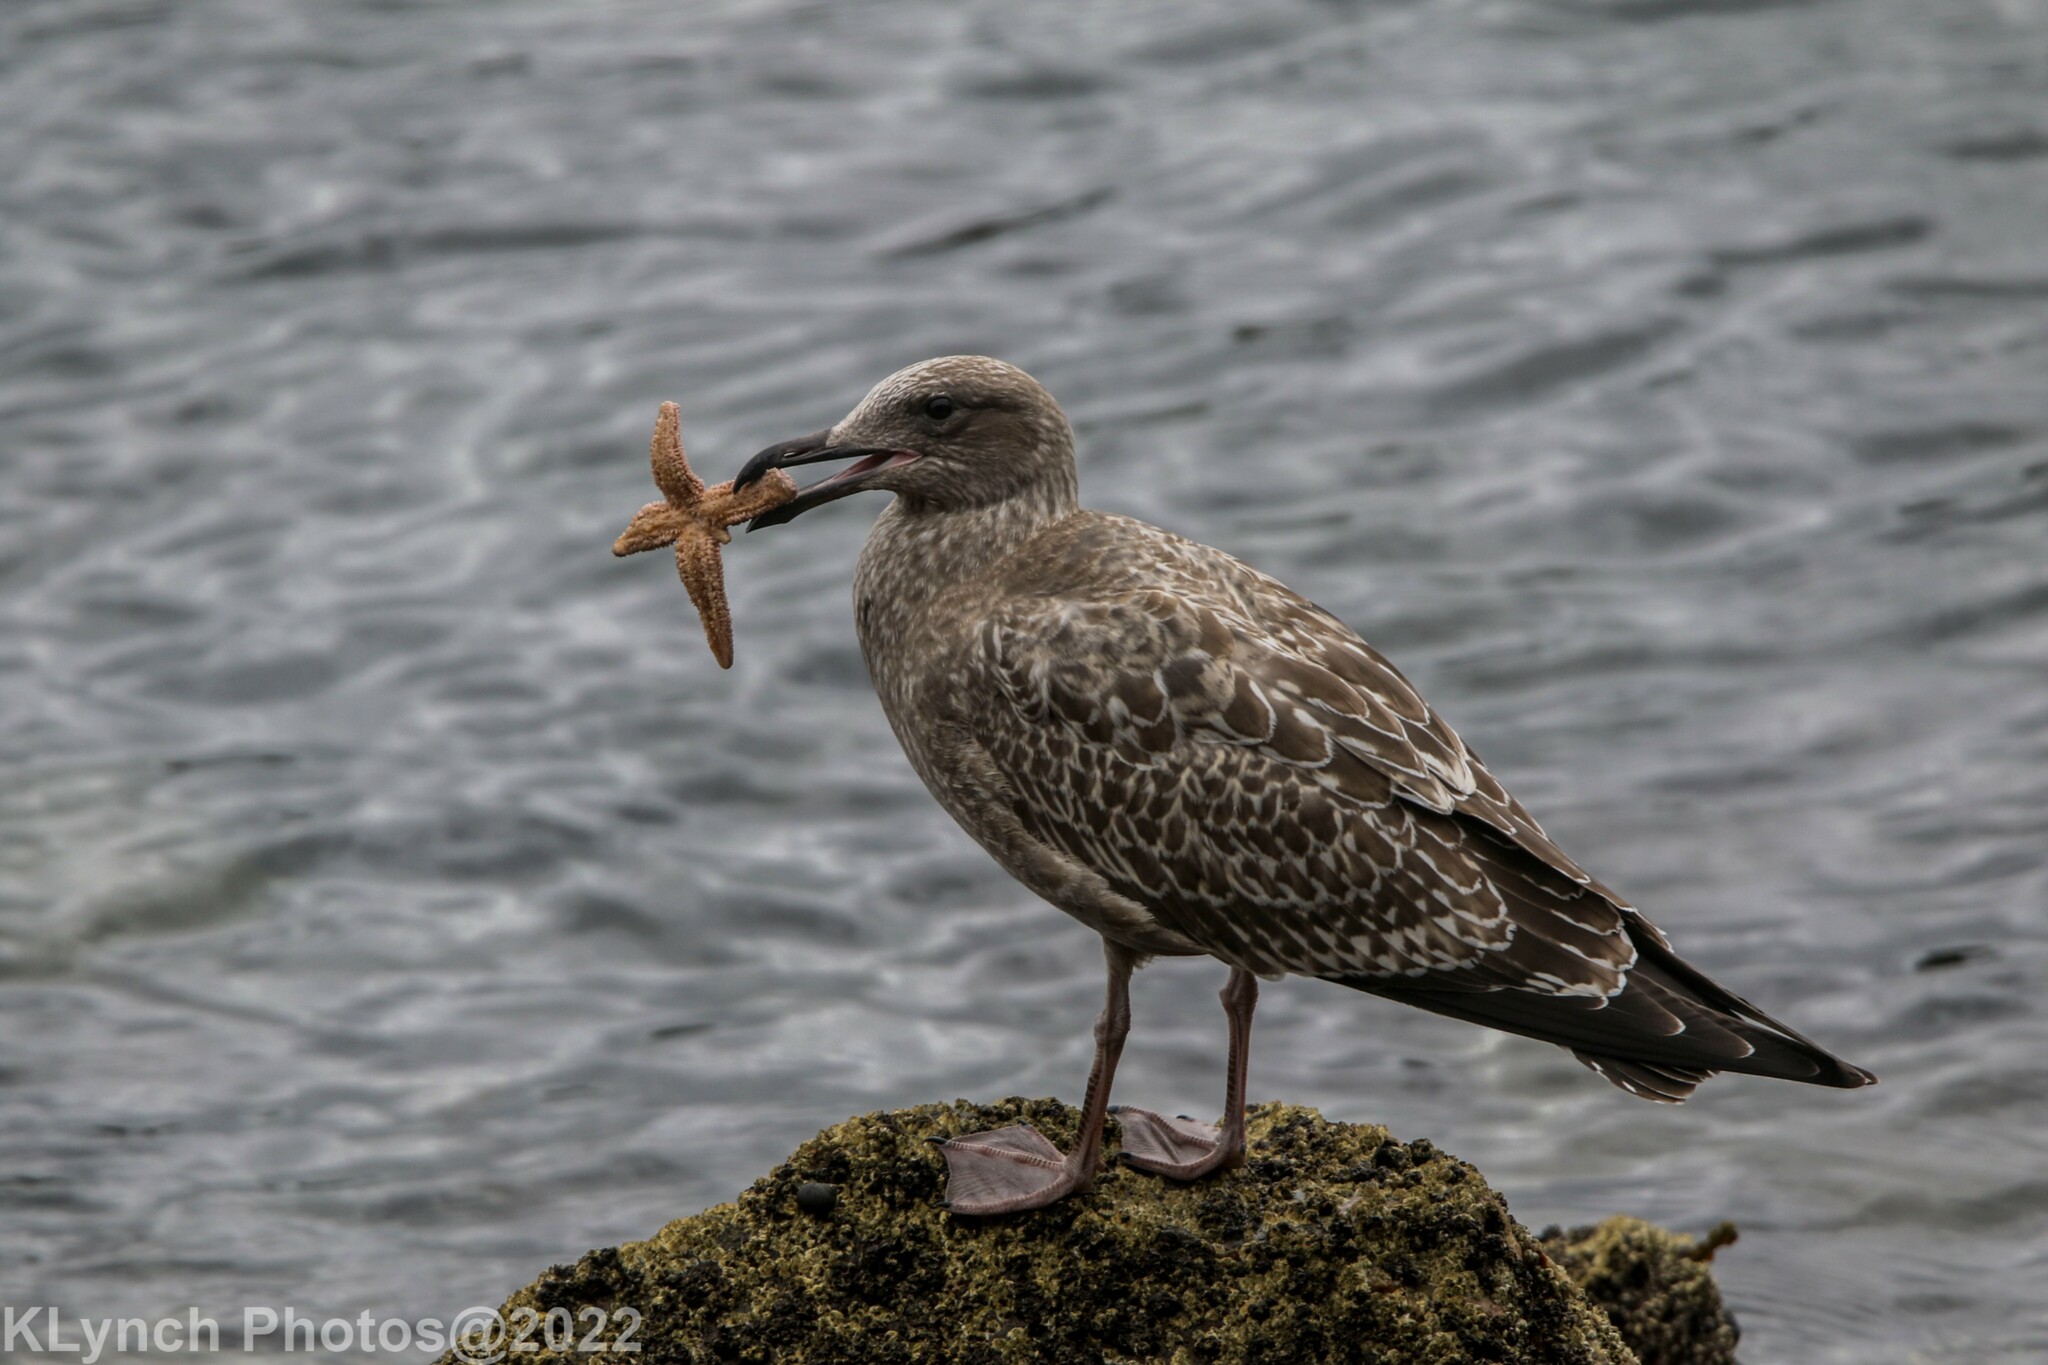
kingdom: Animalia
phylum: Chordata
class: Aves
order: Charadriiformes
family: Laridae
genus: Larus
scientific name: Larus argentatus
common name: Herring gull
